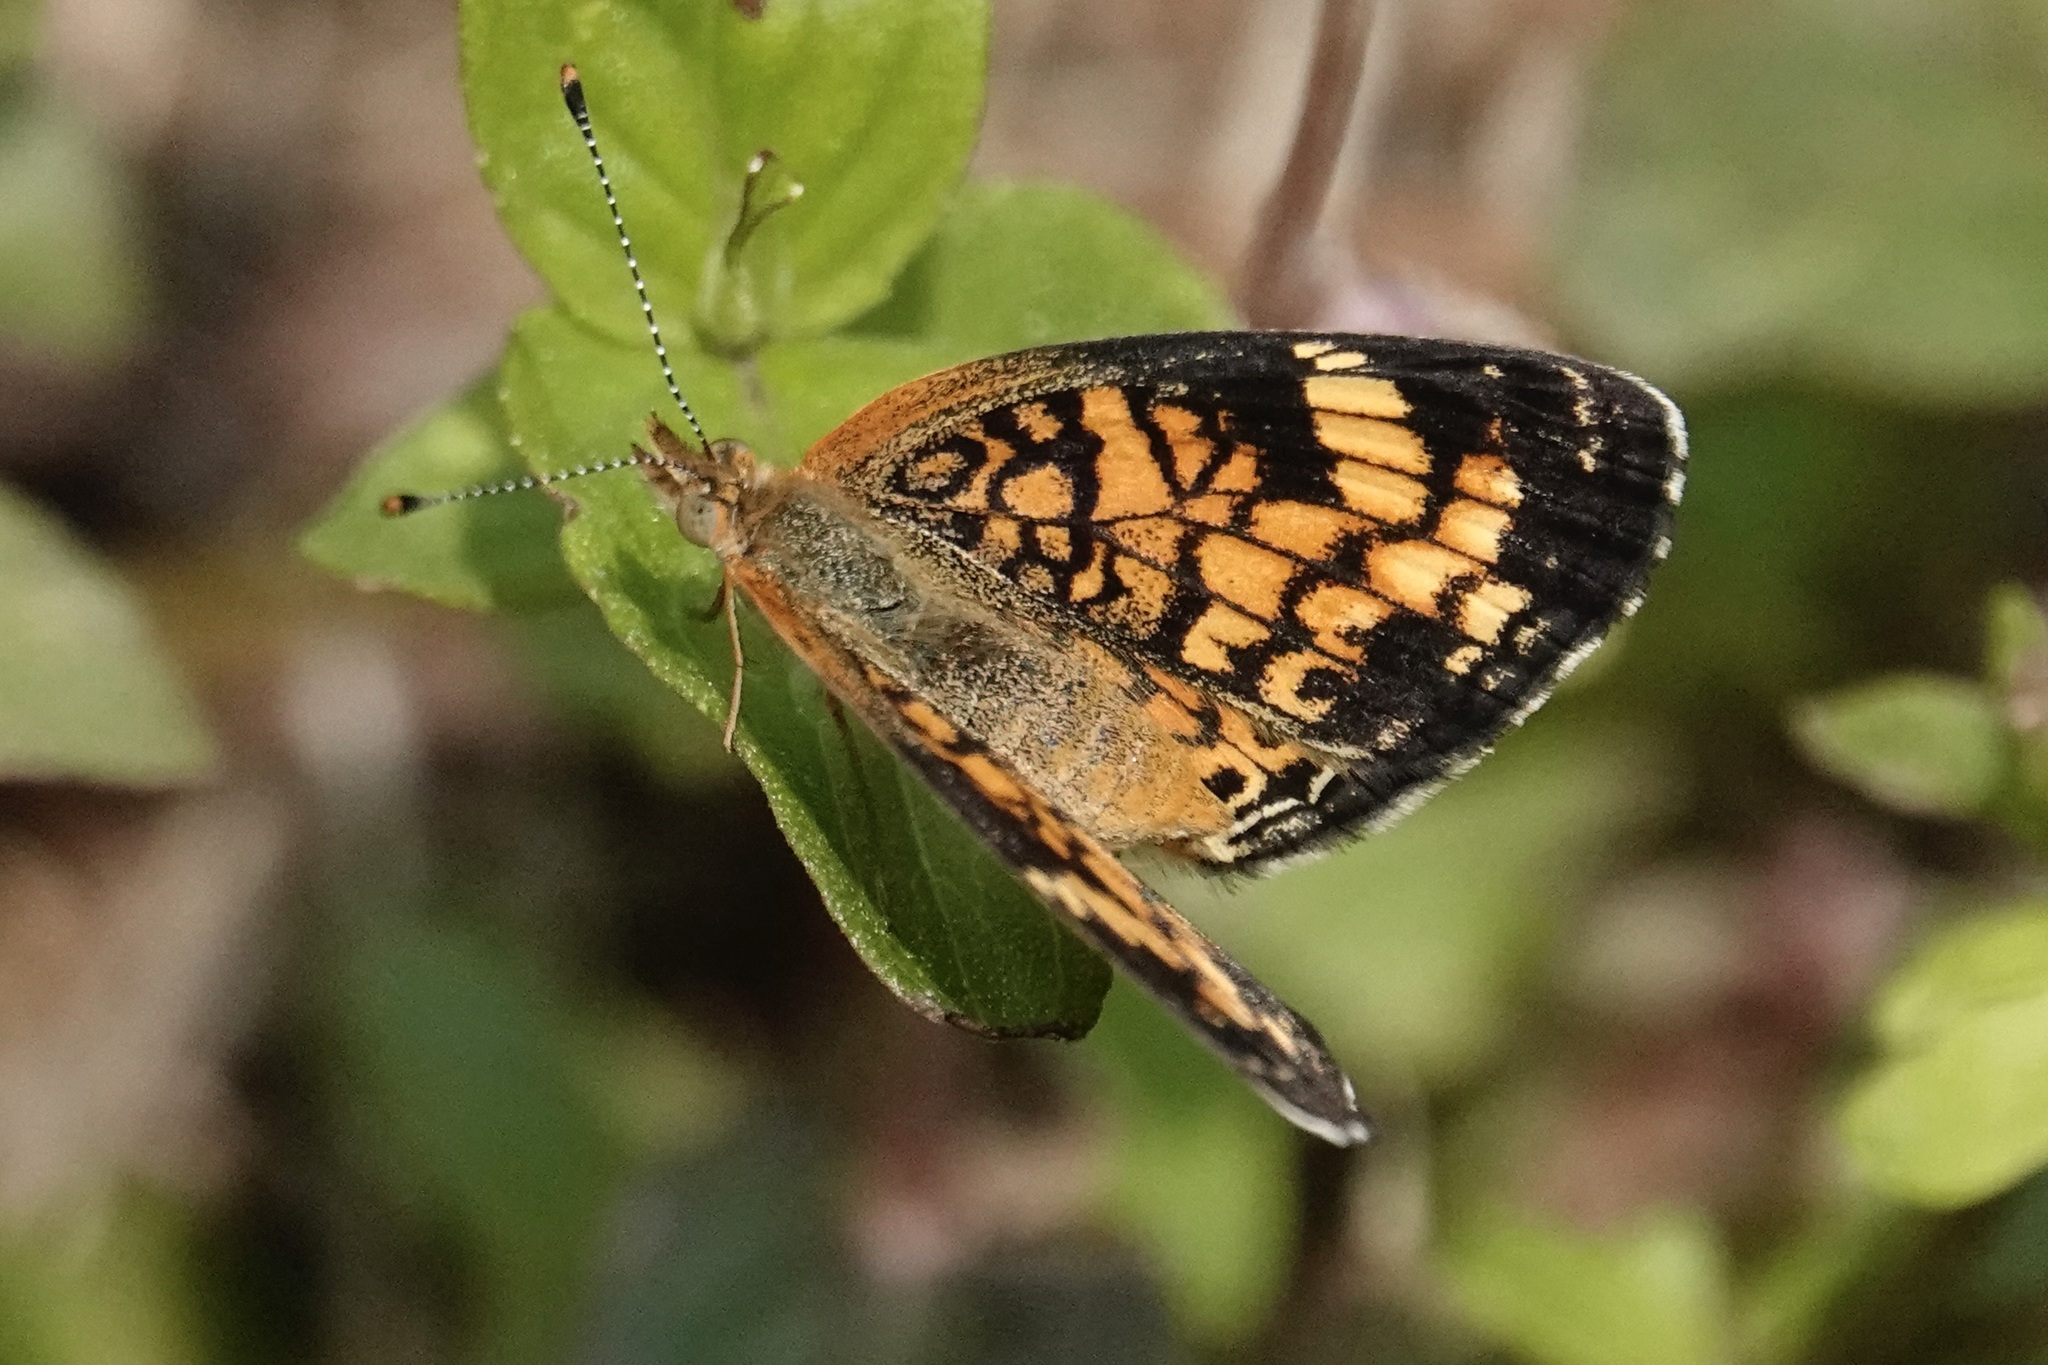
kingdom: Animalia
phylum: Arthropoda
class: Insecta
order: Lepidoptera
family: Nymphalidae
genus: Phyciodes
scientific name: Phyciodes tharos
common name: Pearl crescent
